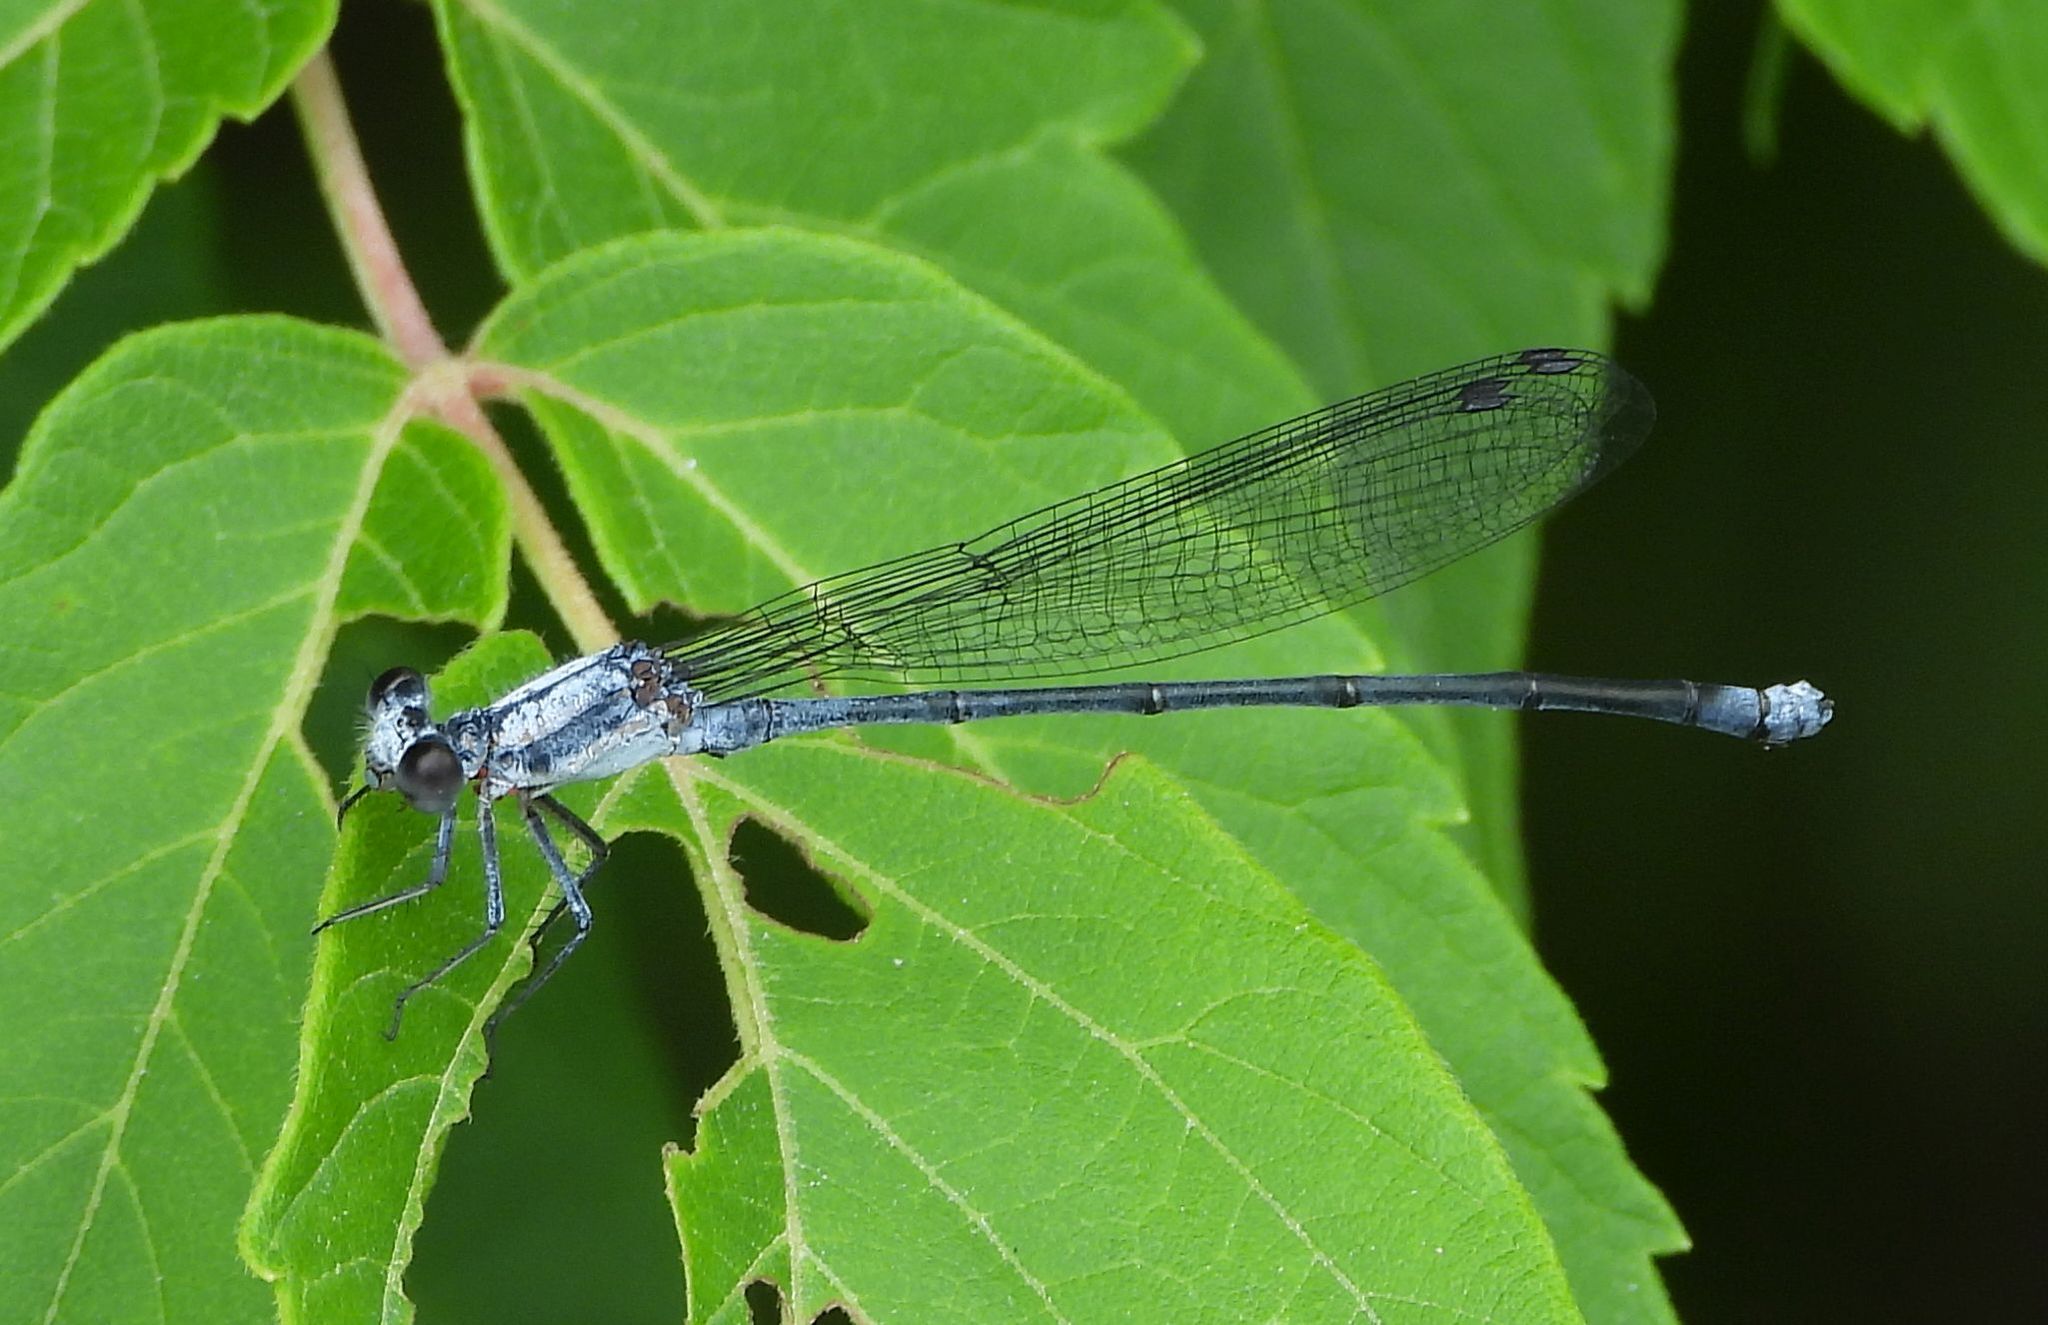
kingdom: Animalia
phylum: Arthropoda
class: Insecta
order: Odonata
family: Coenagrionidae
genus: Argia
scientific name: Argia moesta
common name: Powdered dancer
